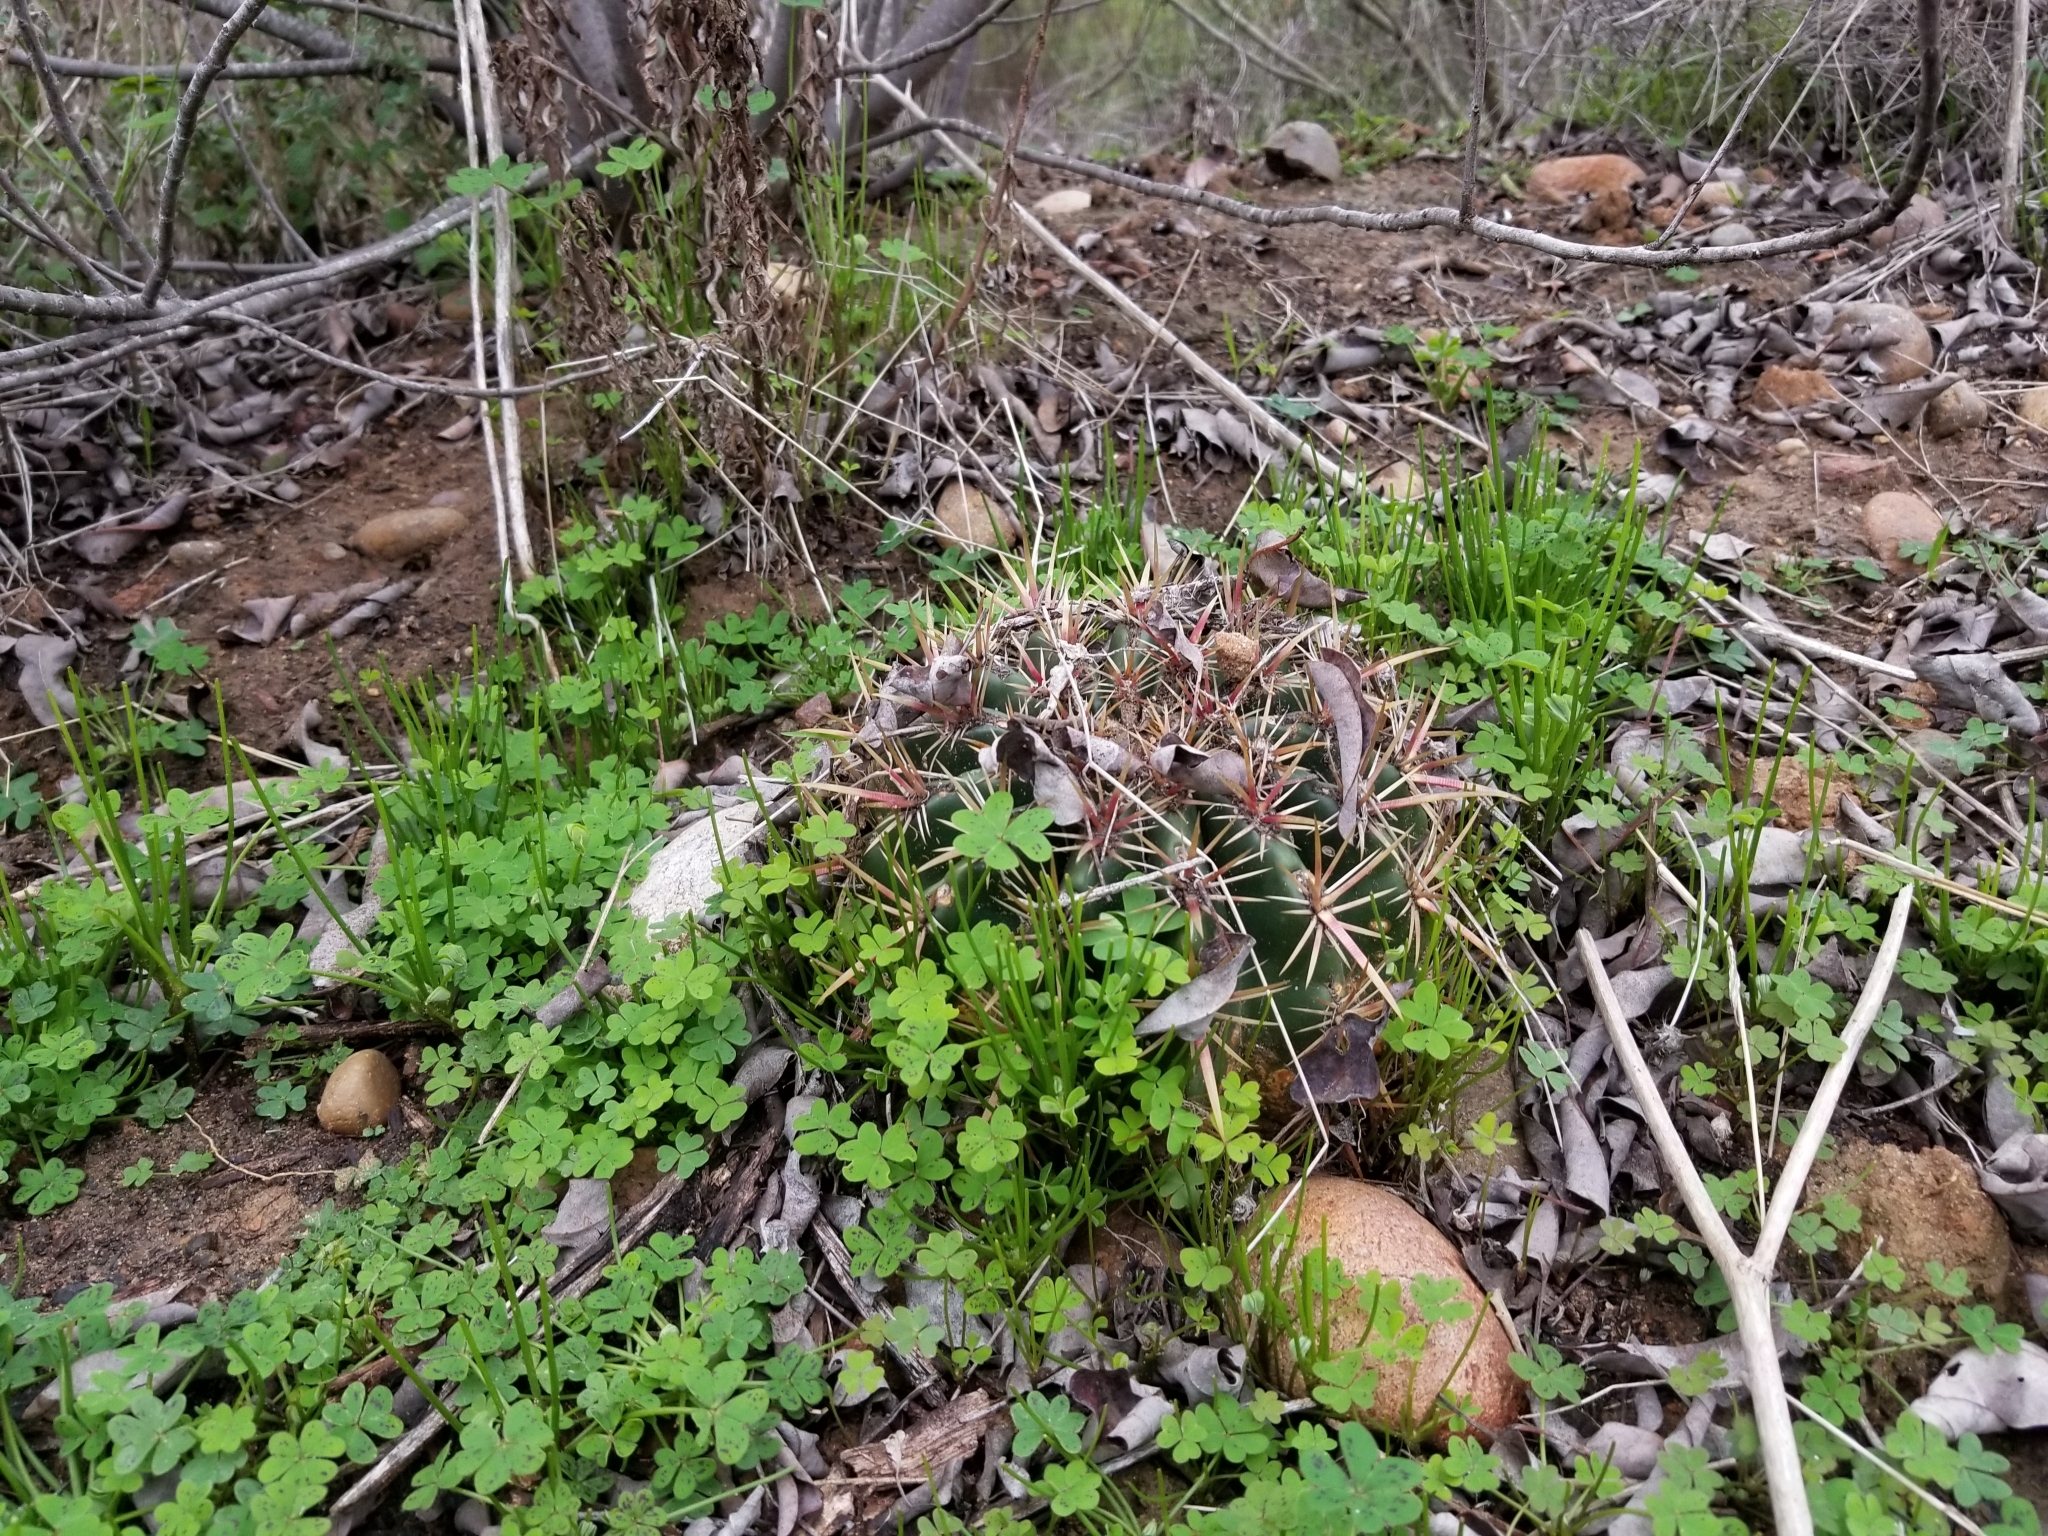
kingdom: Plantae
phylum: Tracheophyta
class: Magnoliopsida
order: Caryophyllales
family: Cactaceae
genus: Ferocactus
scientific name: Ferocactus viridescens
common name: San diego barrel cactus
